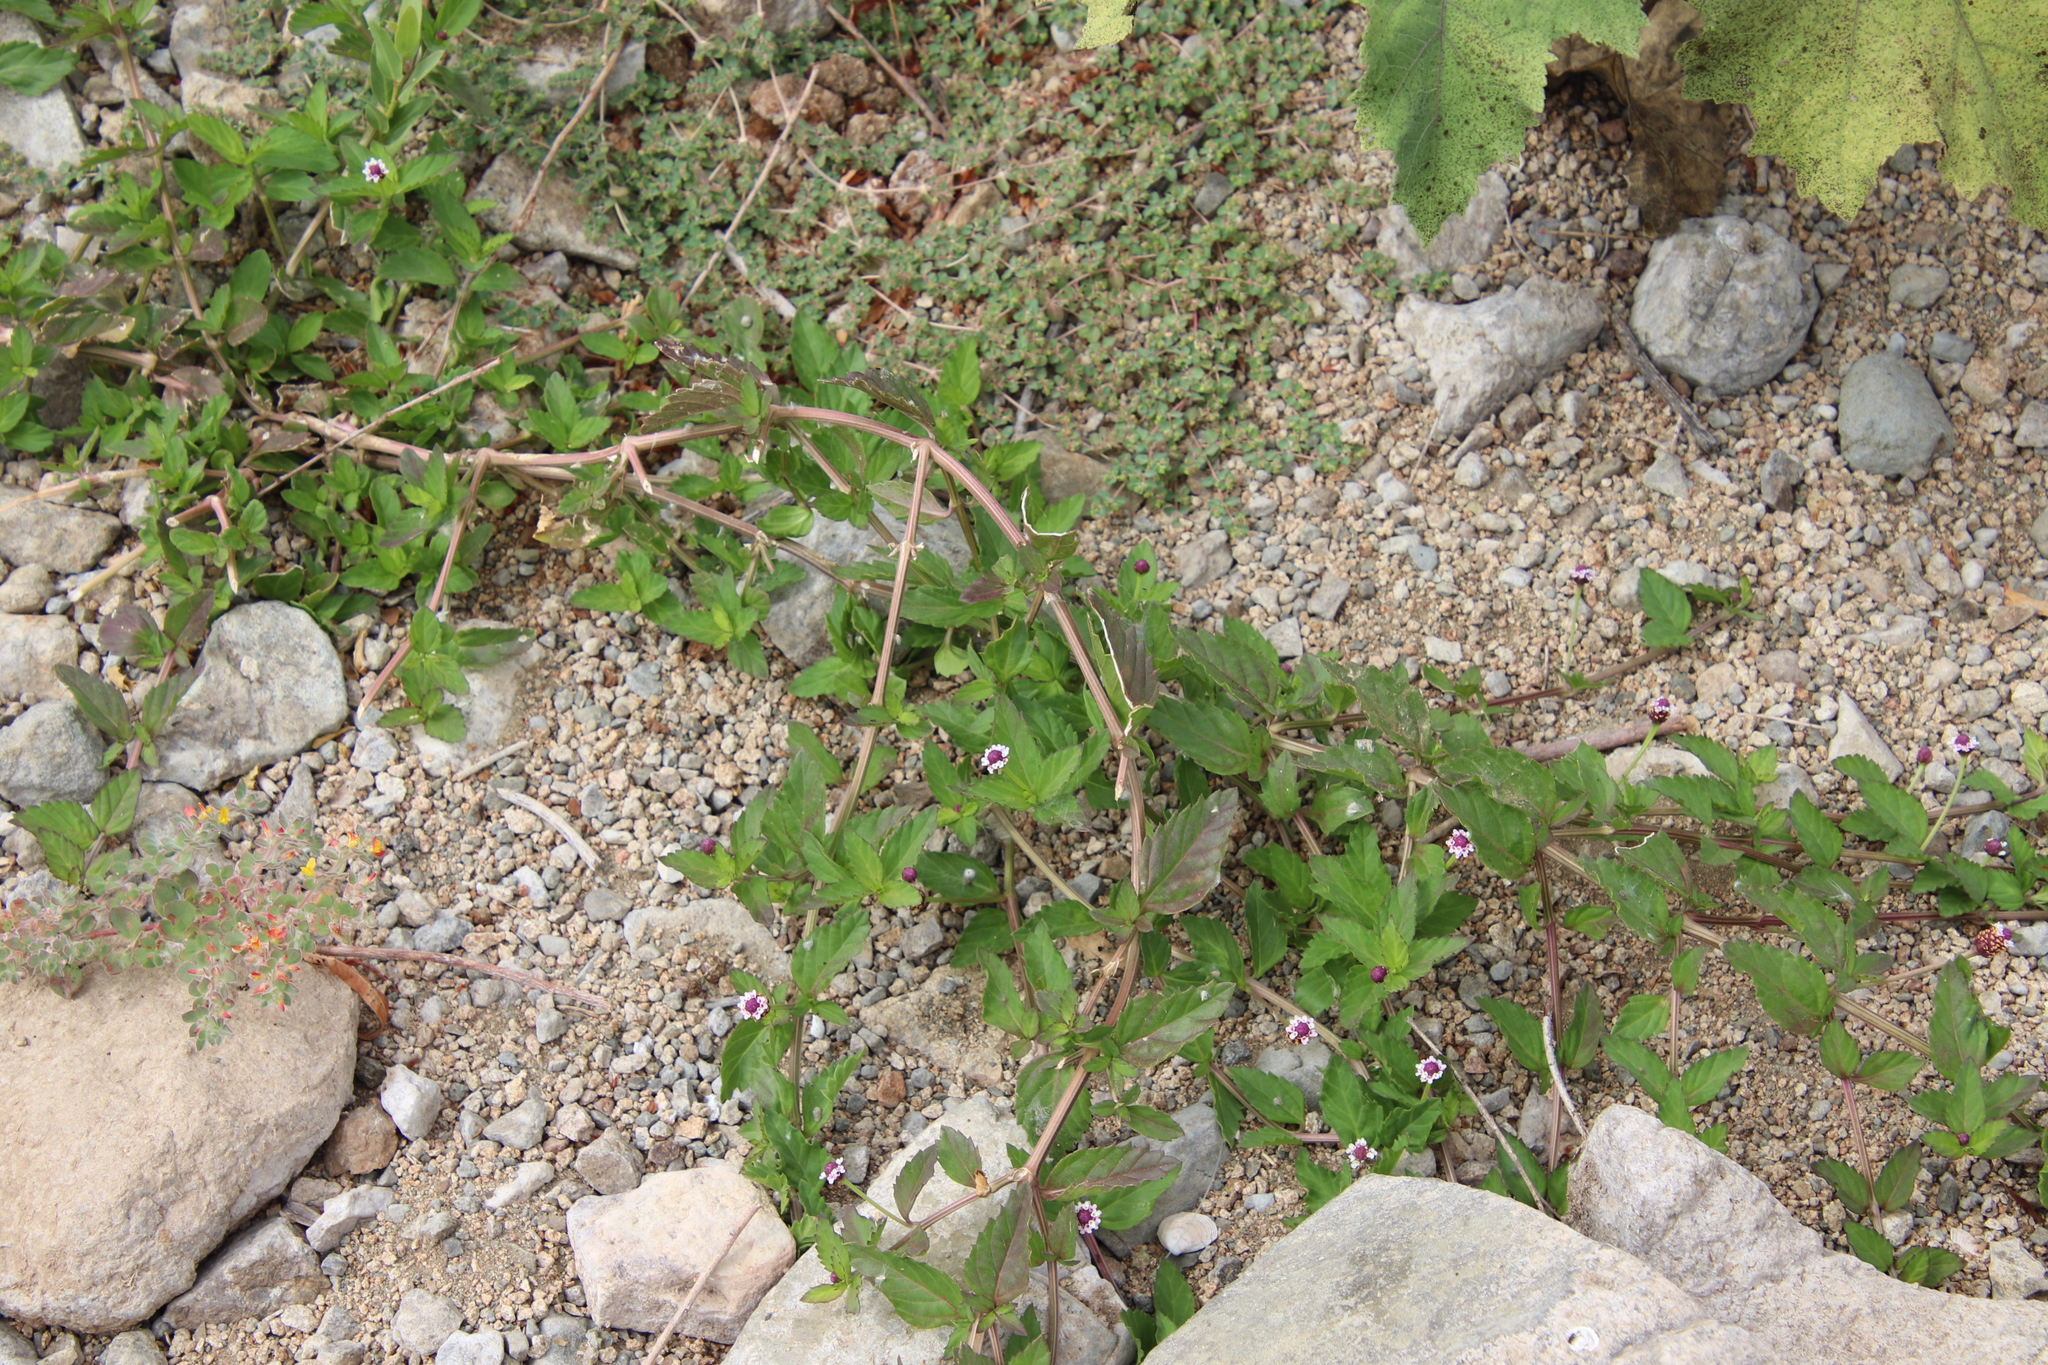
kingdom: Plantae
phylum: Tracheophyta
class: Magnoliopsida
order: Lamiales
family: Verbenaceae
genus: Phyla
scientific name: Phyla lanceolata
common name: Northern fogfruit
